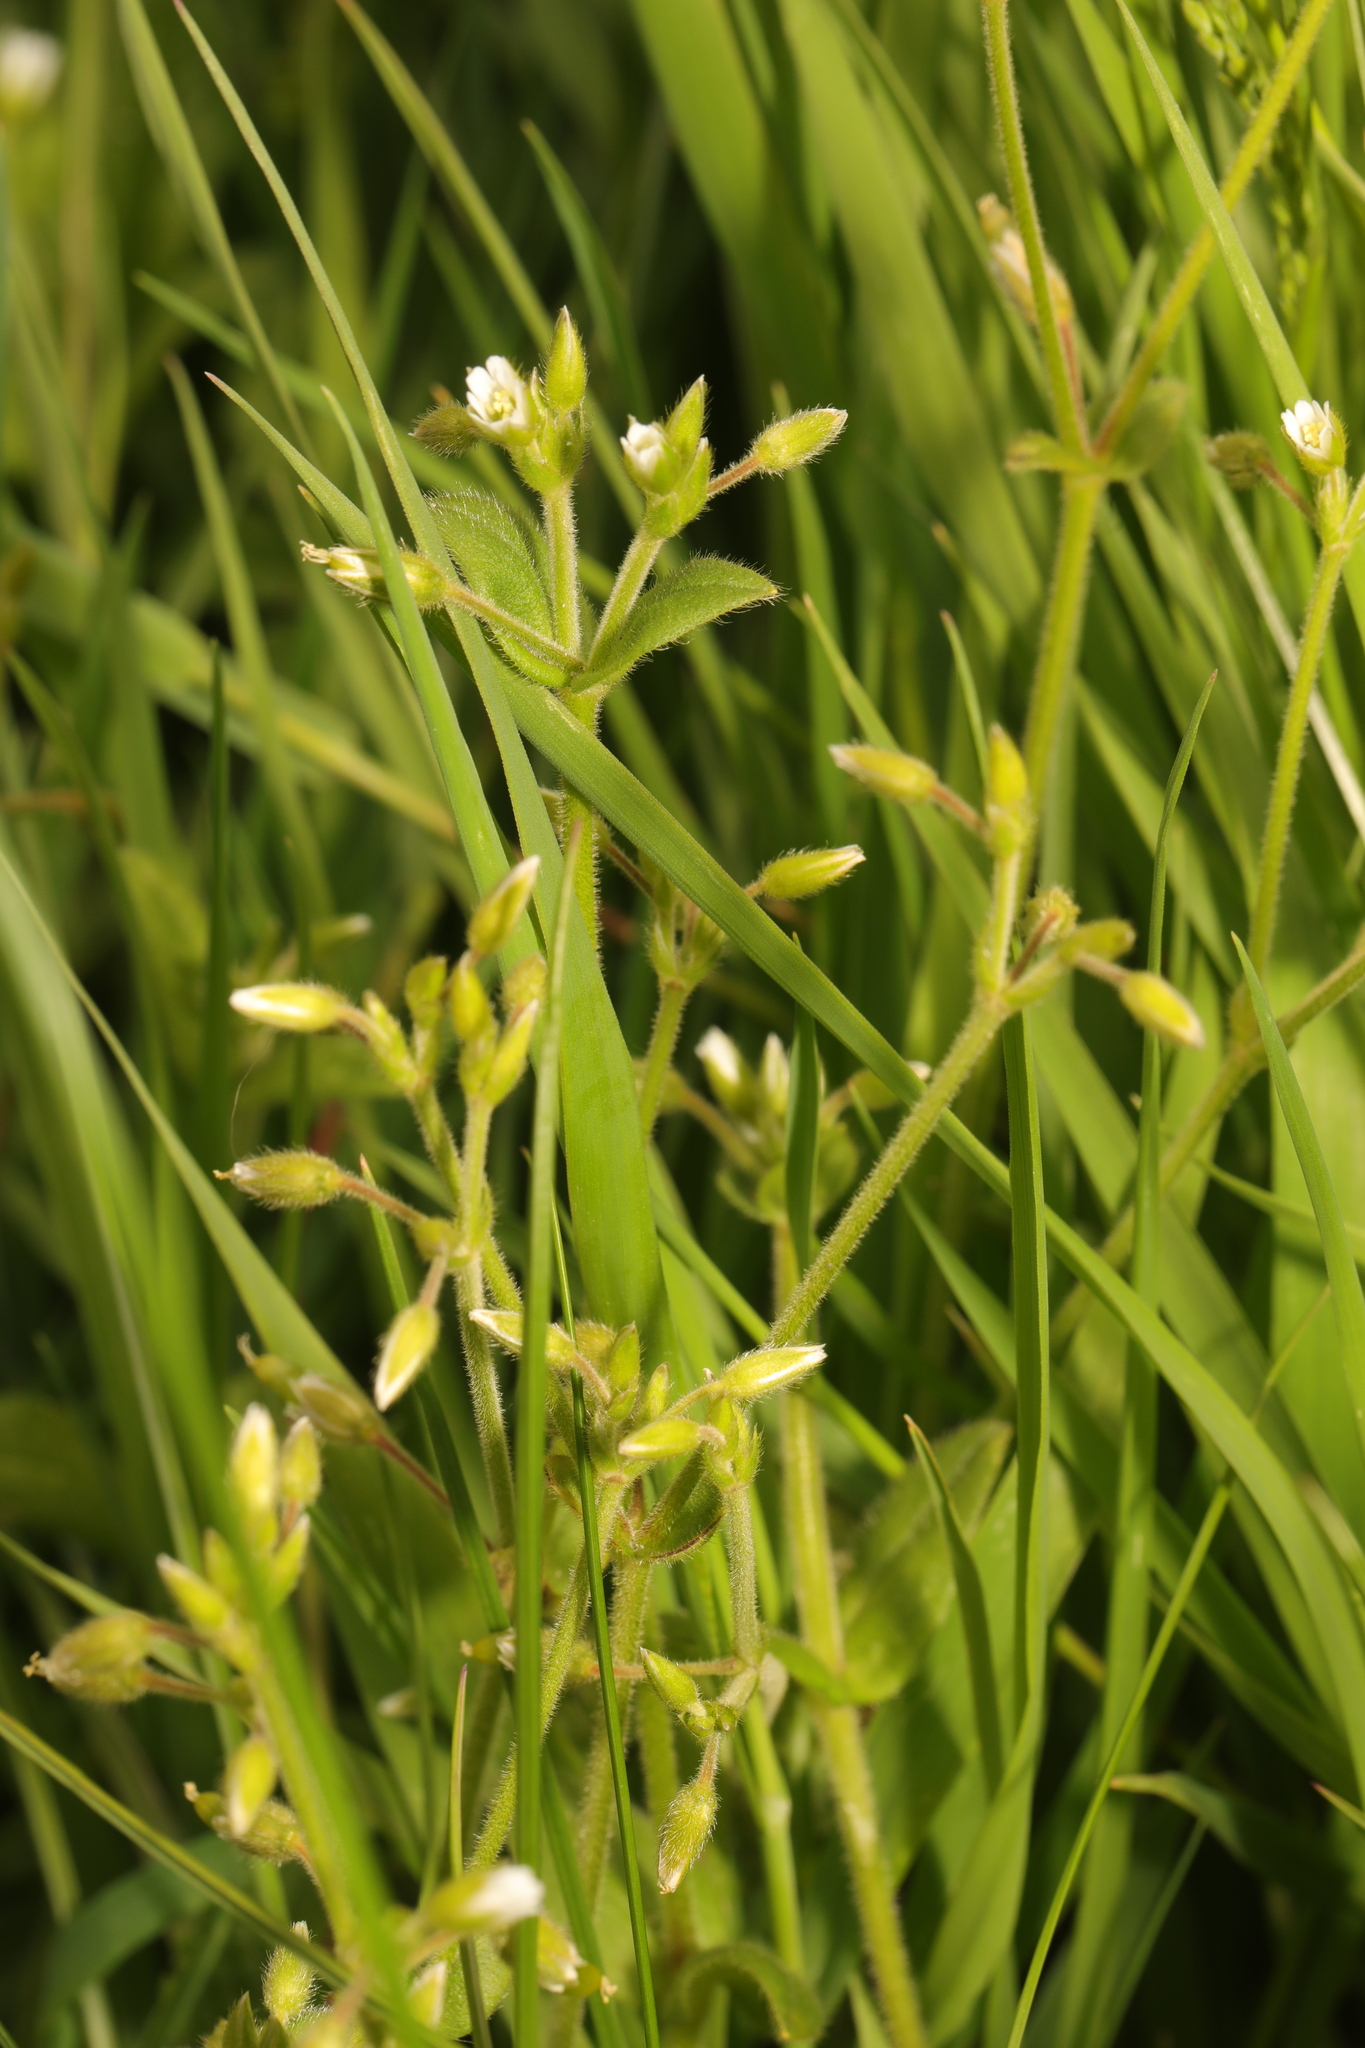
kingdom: Plantae
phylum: Tracheophyta
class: Magnoliopsida
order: Caryophyllales
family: Caryophyllaceae
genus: Cerastium
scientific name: Cerastium fontanum
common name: Common mouse-ear
